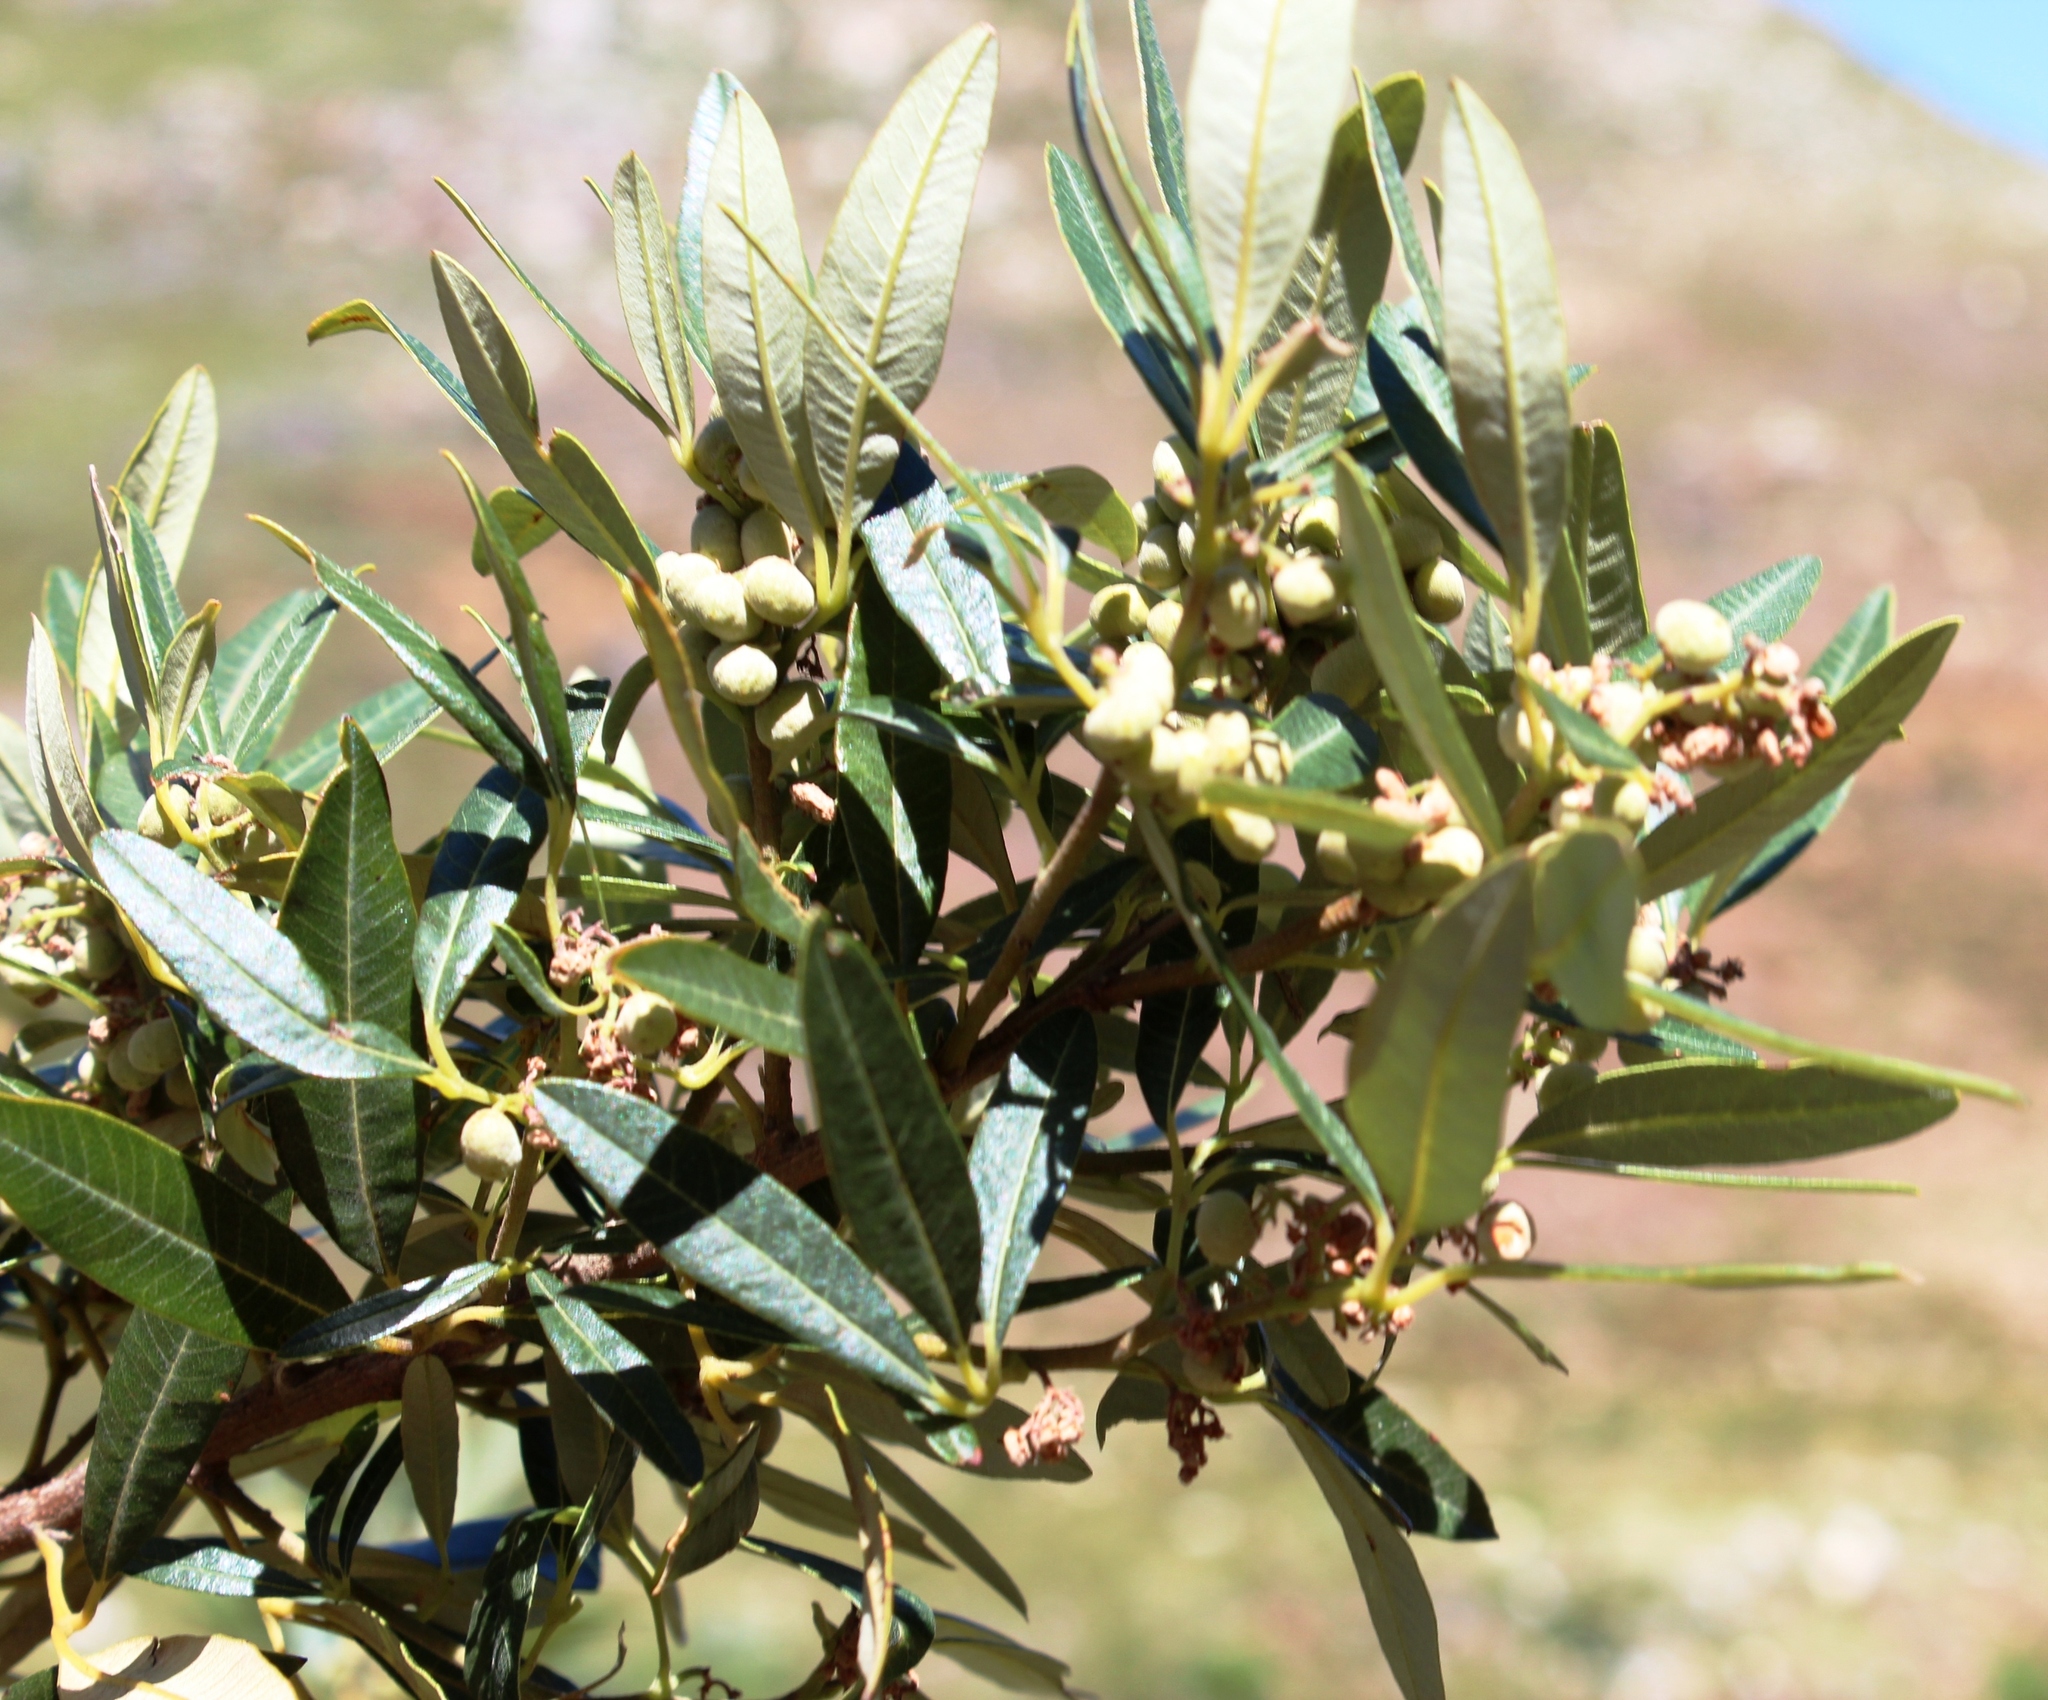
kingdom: Plantae
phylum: Tracheophyta
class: Magnoliopsida
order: Sapindales
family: Anacardiaceae
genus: Searsia
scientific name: Searsia angustifolia
